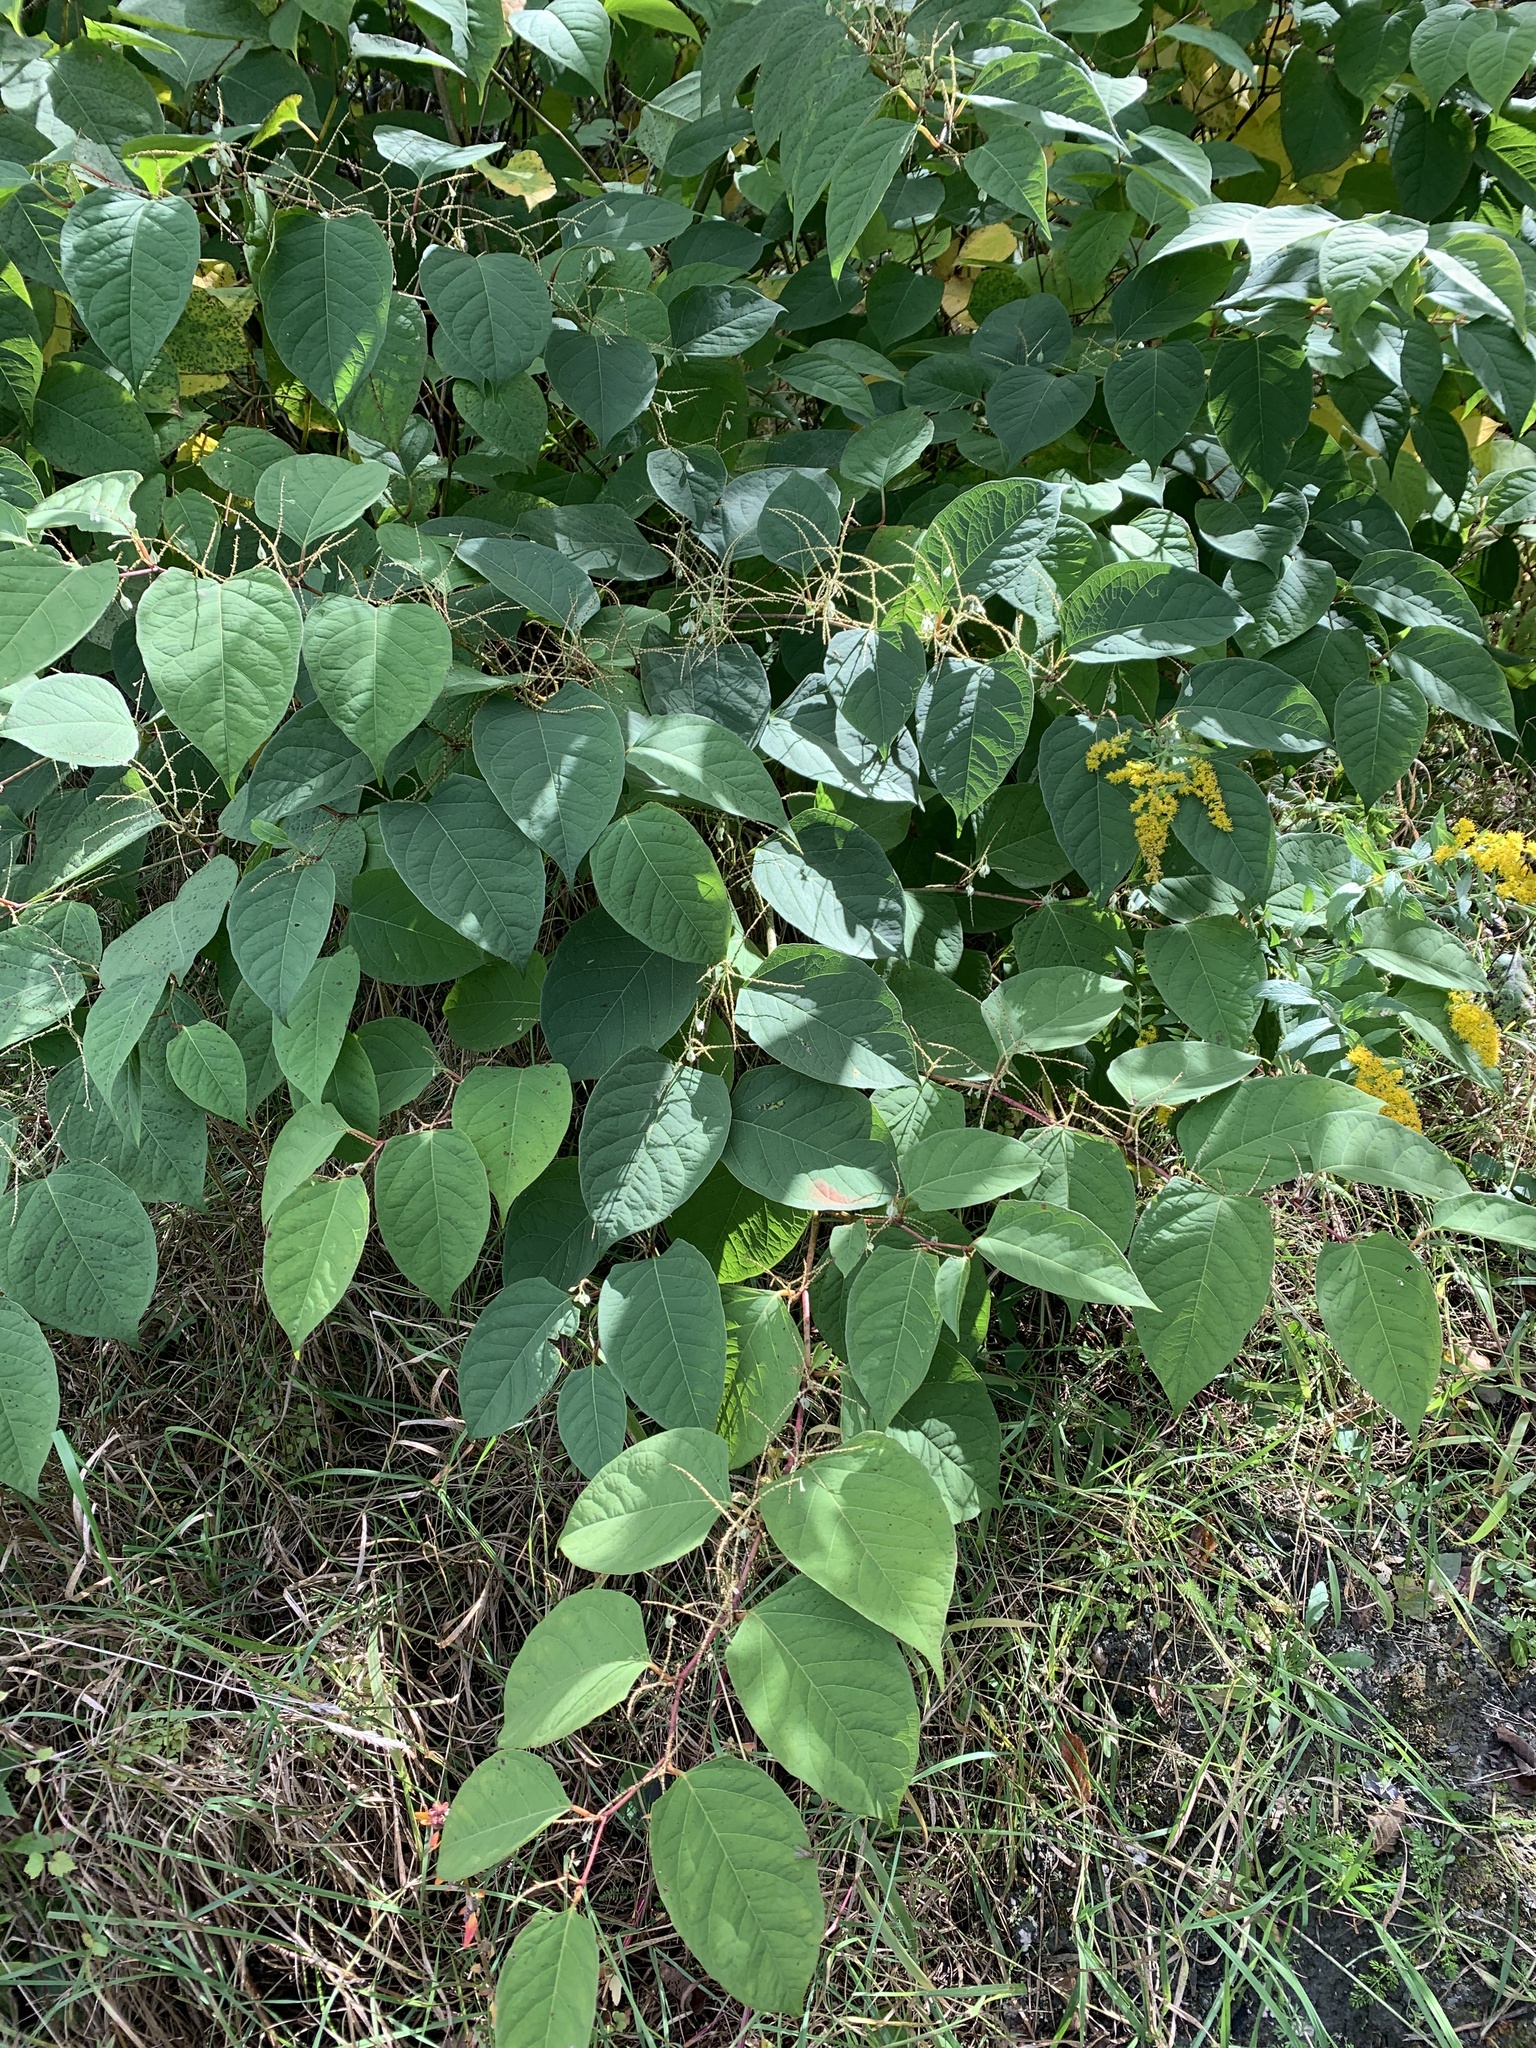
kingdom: Plantae
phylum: Tracheophyta
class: Magnoliopsida
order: Caryophyllales
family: Polygonaceae
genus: Reynoutria
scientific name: Reynoutria japonica
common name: Japanese knotweed
